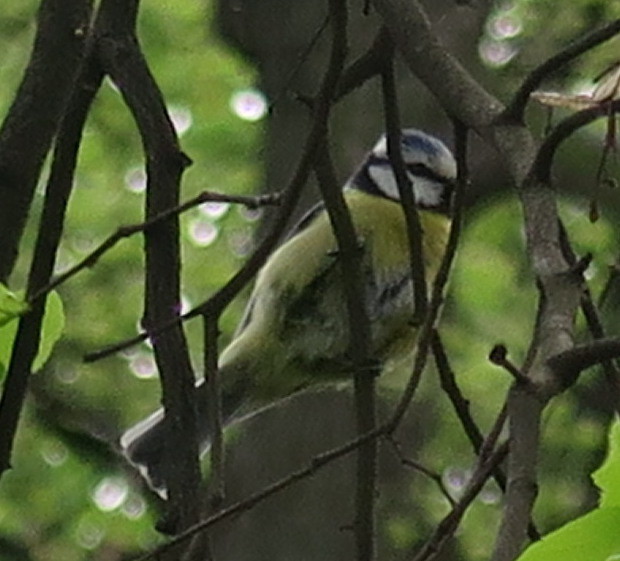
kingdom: Animalia
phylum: Chordata
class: Aves
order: Passeriformes
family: Paridae
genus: Cyanistes
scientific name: Cyanistes caeruleus
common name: Eurasian blue tit
